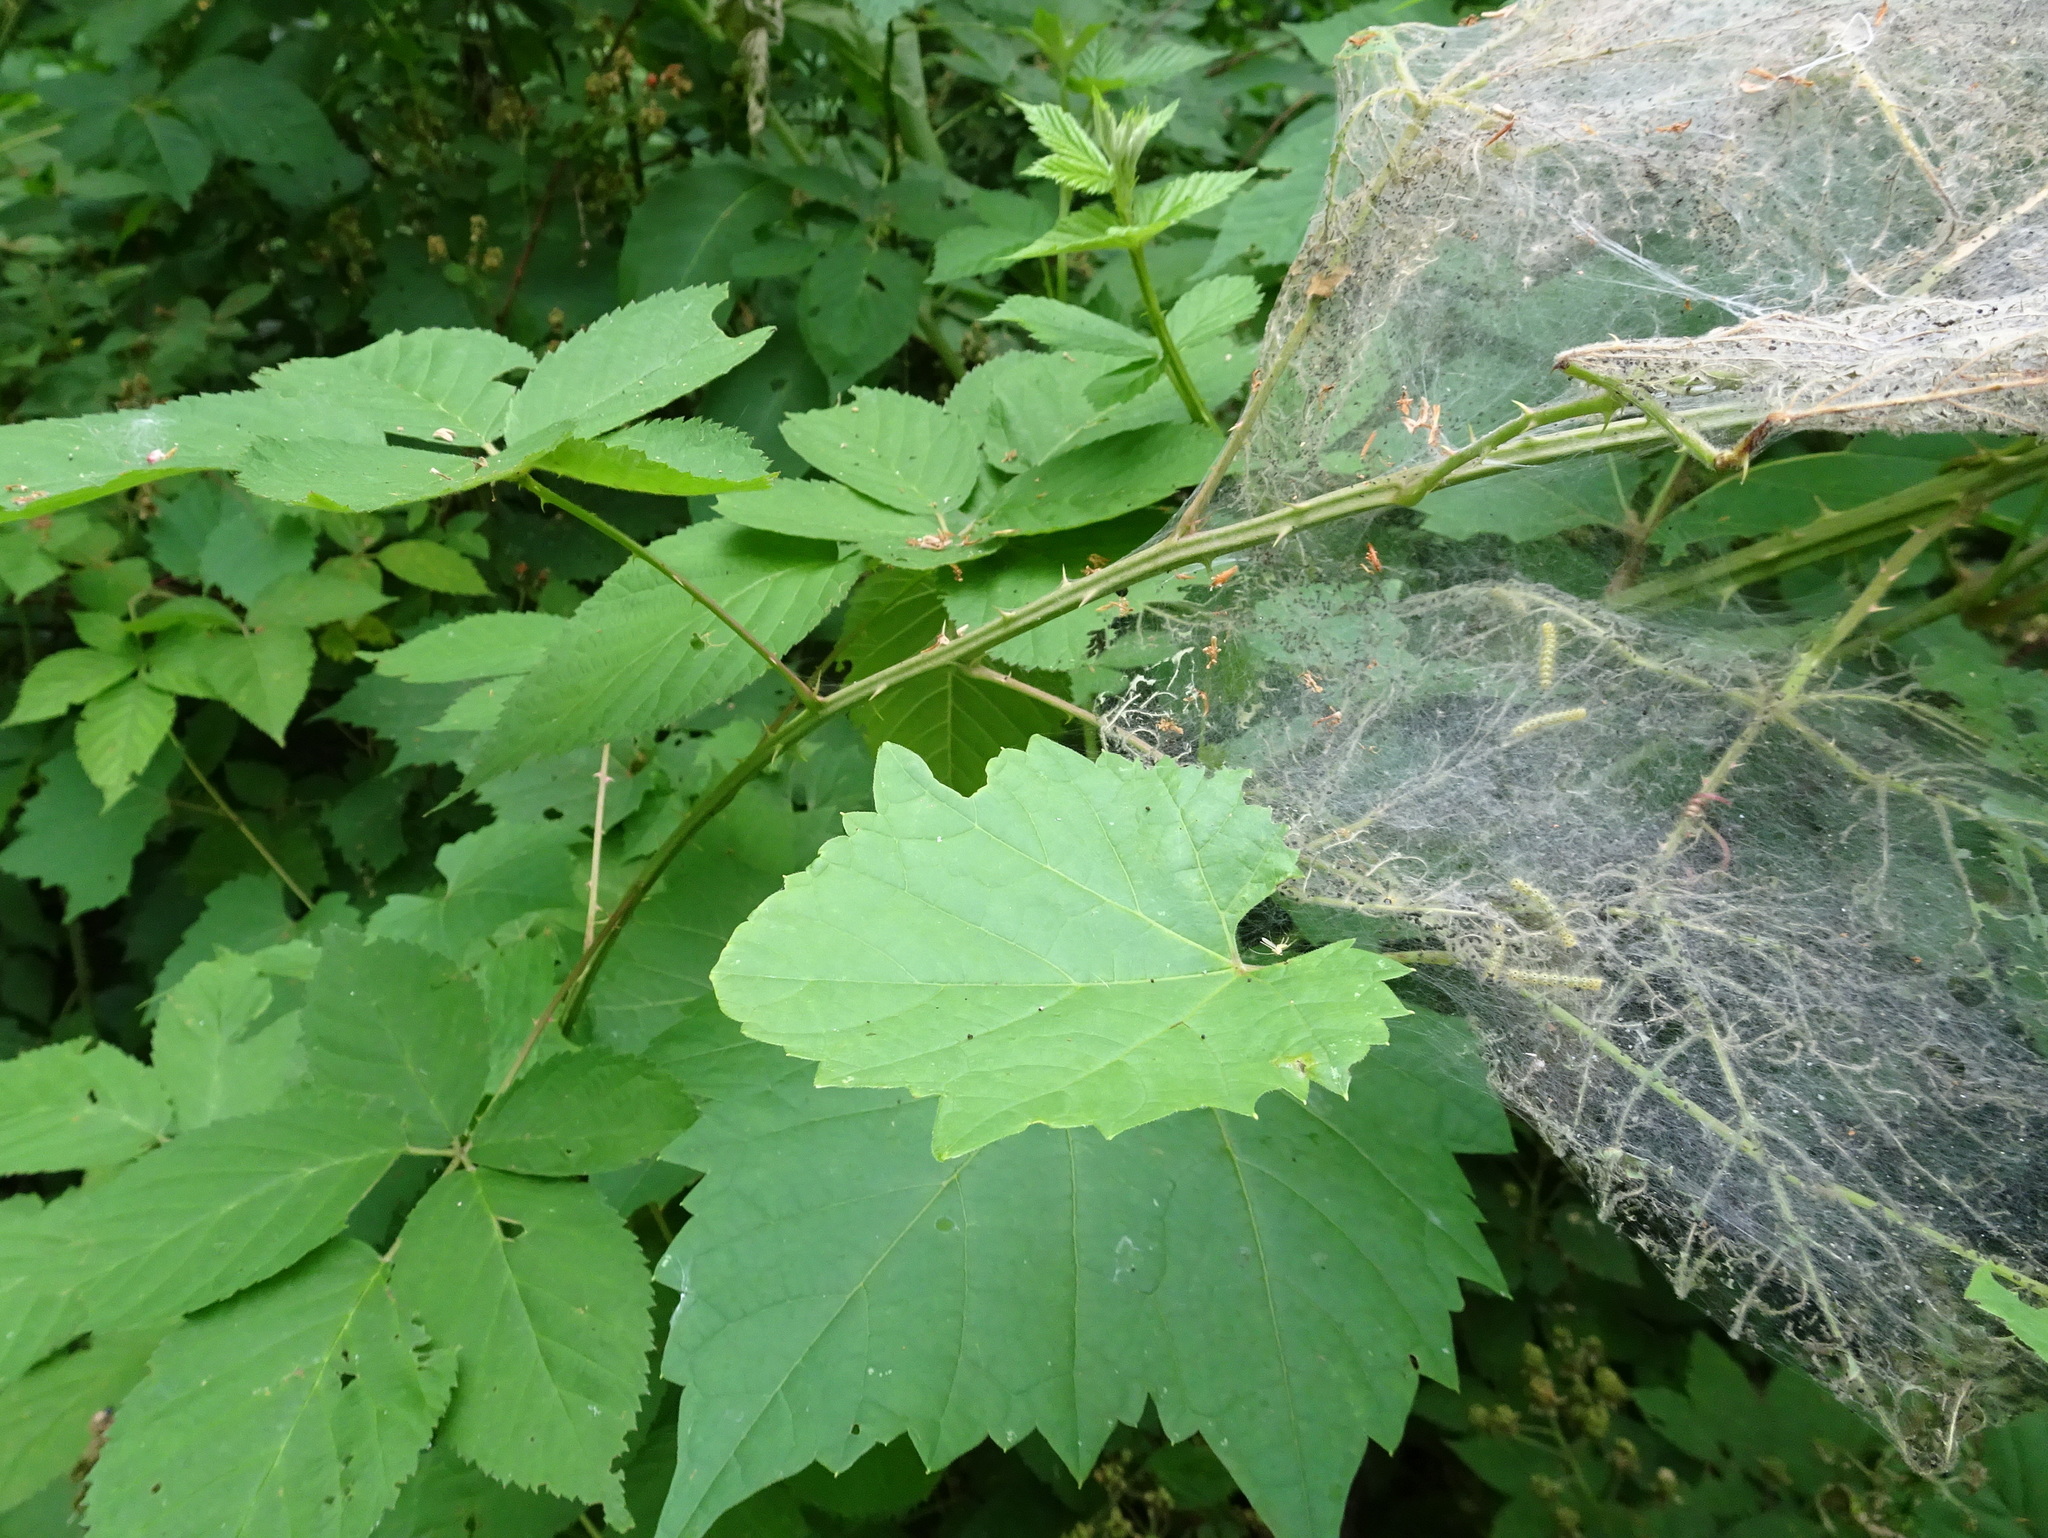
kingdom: Animalia
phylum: Arthropoda
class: Insecta
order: Lepidoptera
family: Erebidae
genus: Hyphantria
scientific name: Hyphantria cunea
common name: American white moth
